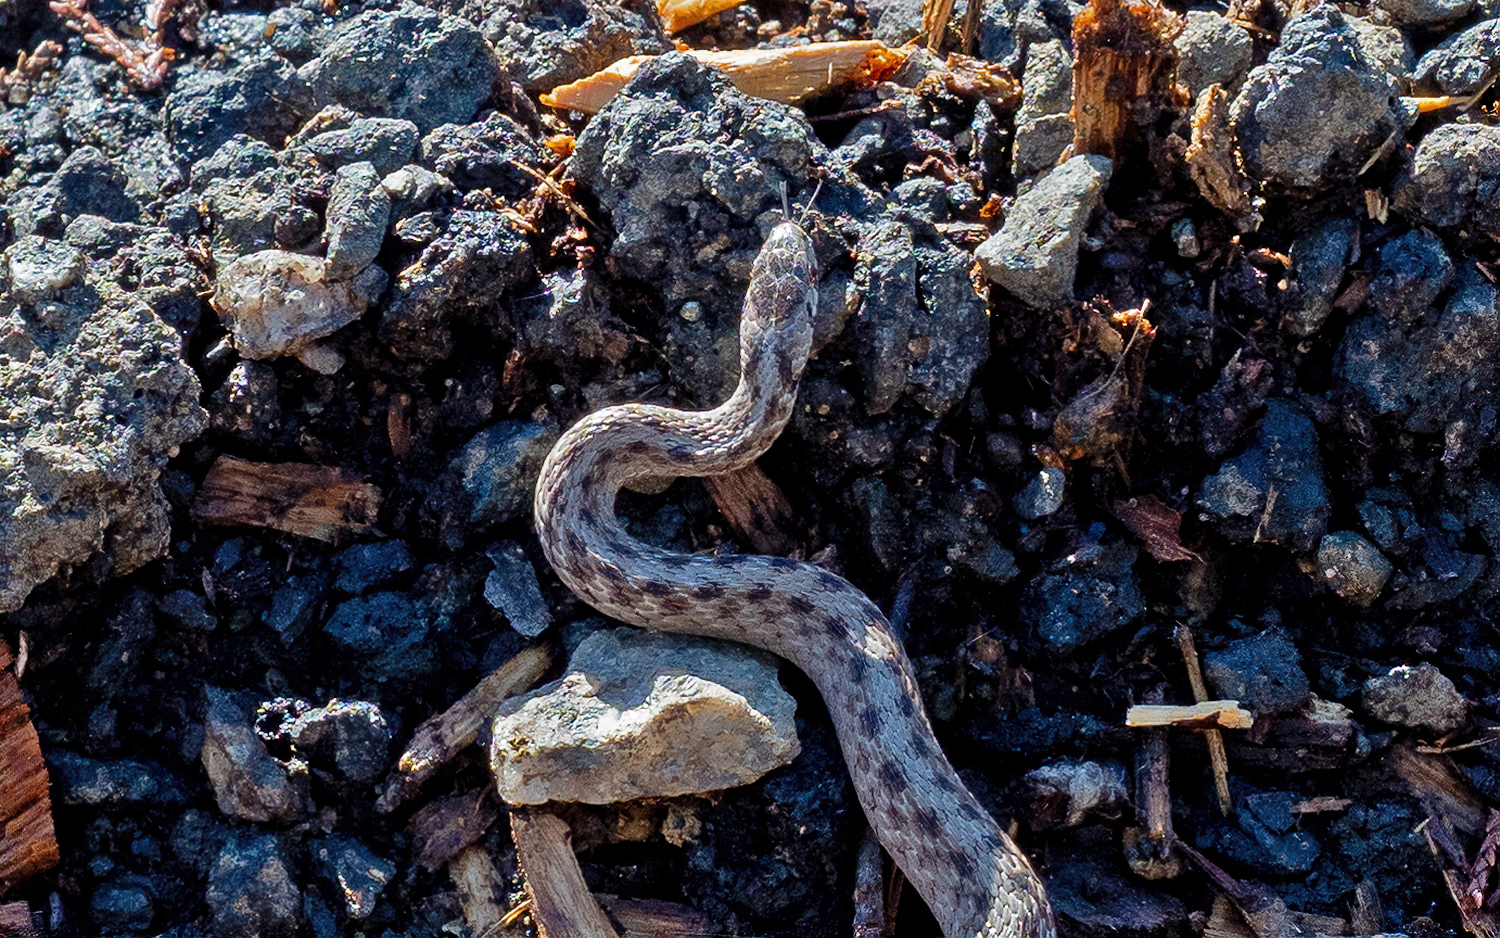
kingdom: Animalia
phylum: Chordata
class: Squamata
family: Colubridae
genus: Storeria
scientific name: Storeria dekayi
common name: (dekay’s) brown snake
